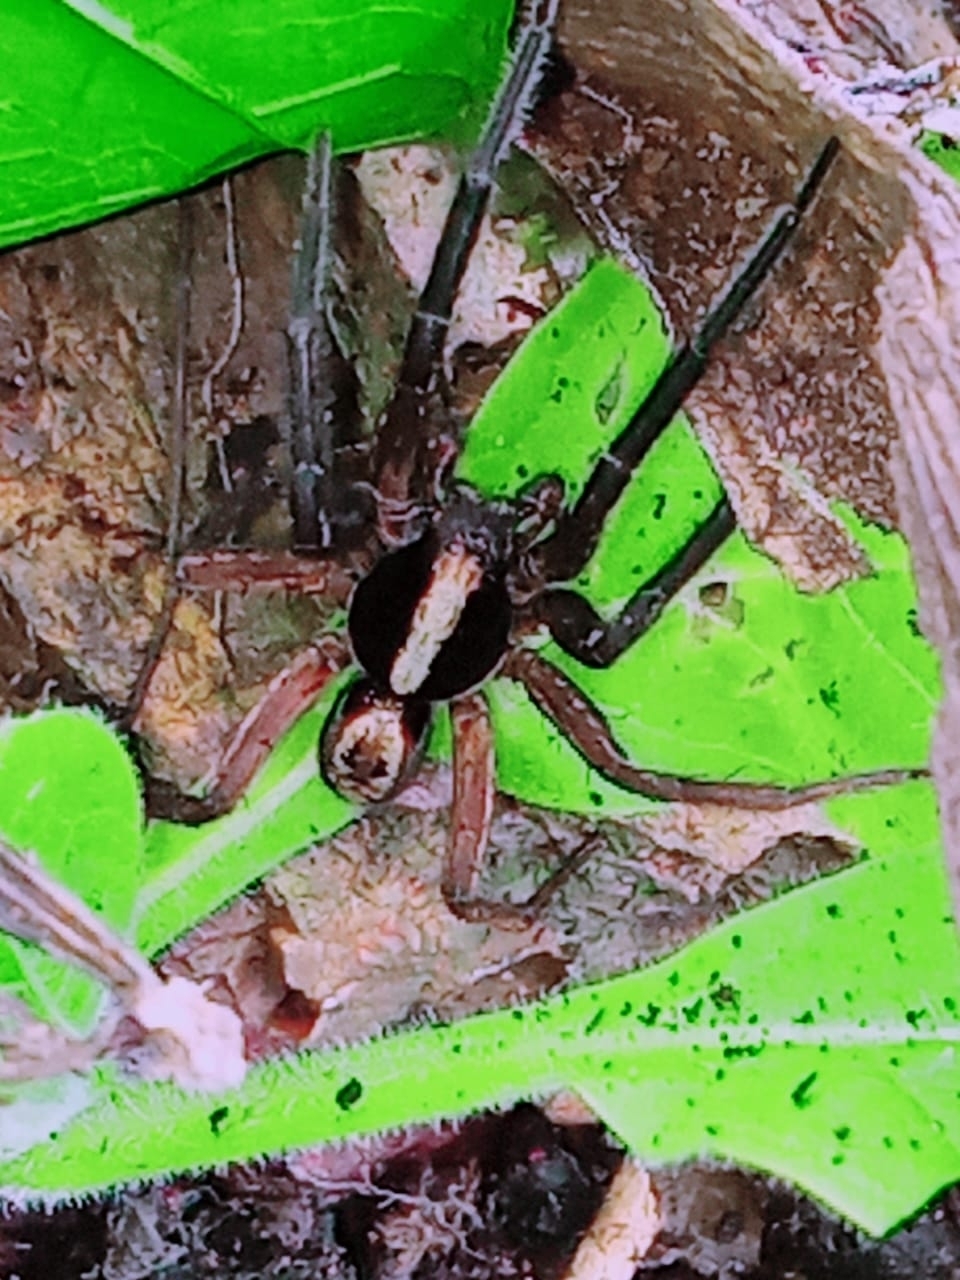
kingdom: Animalia
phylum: Arthropoda
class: Arachnida
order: Araneae
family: Lycosidae
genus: Hogna
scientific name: Hogna gumia
